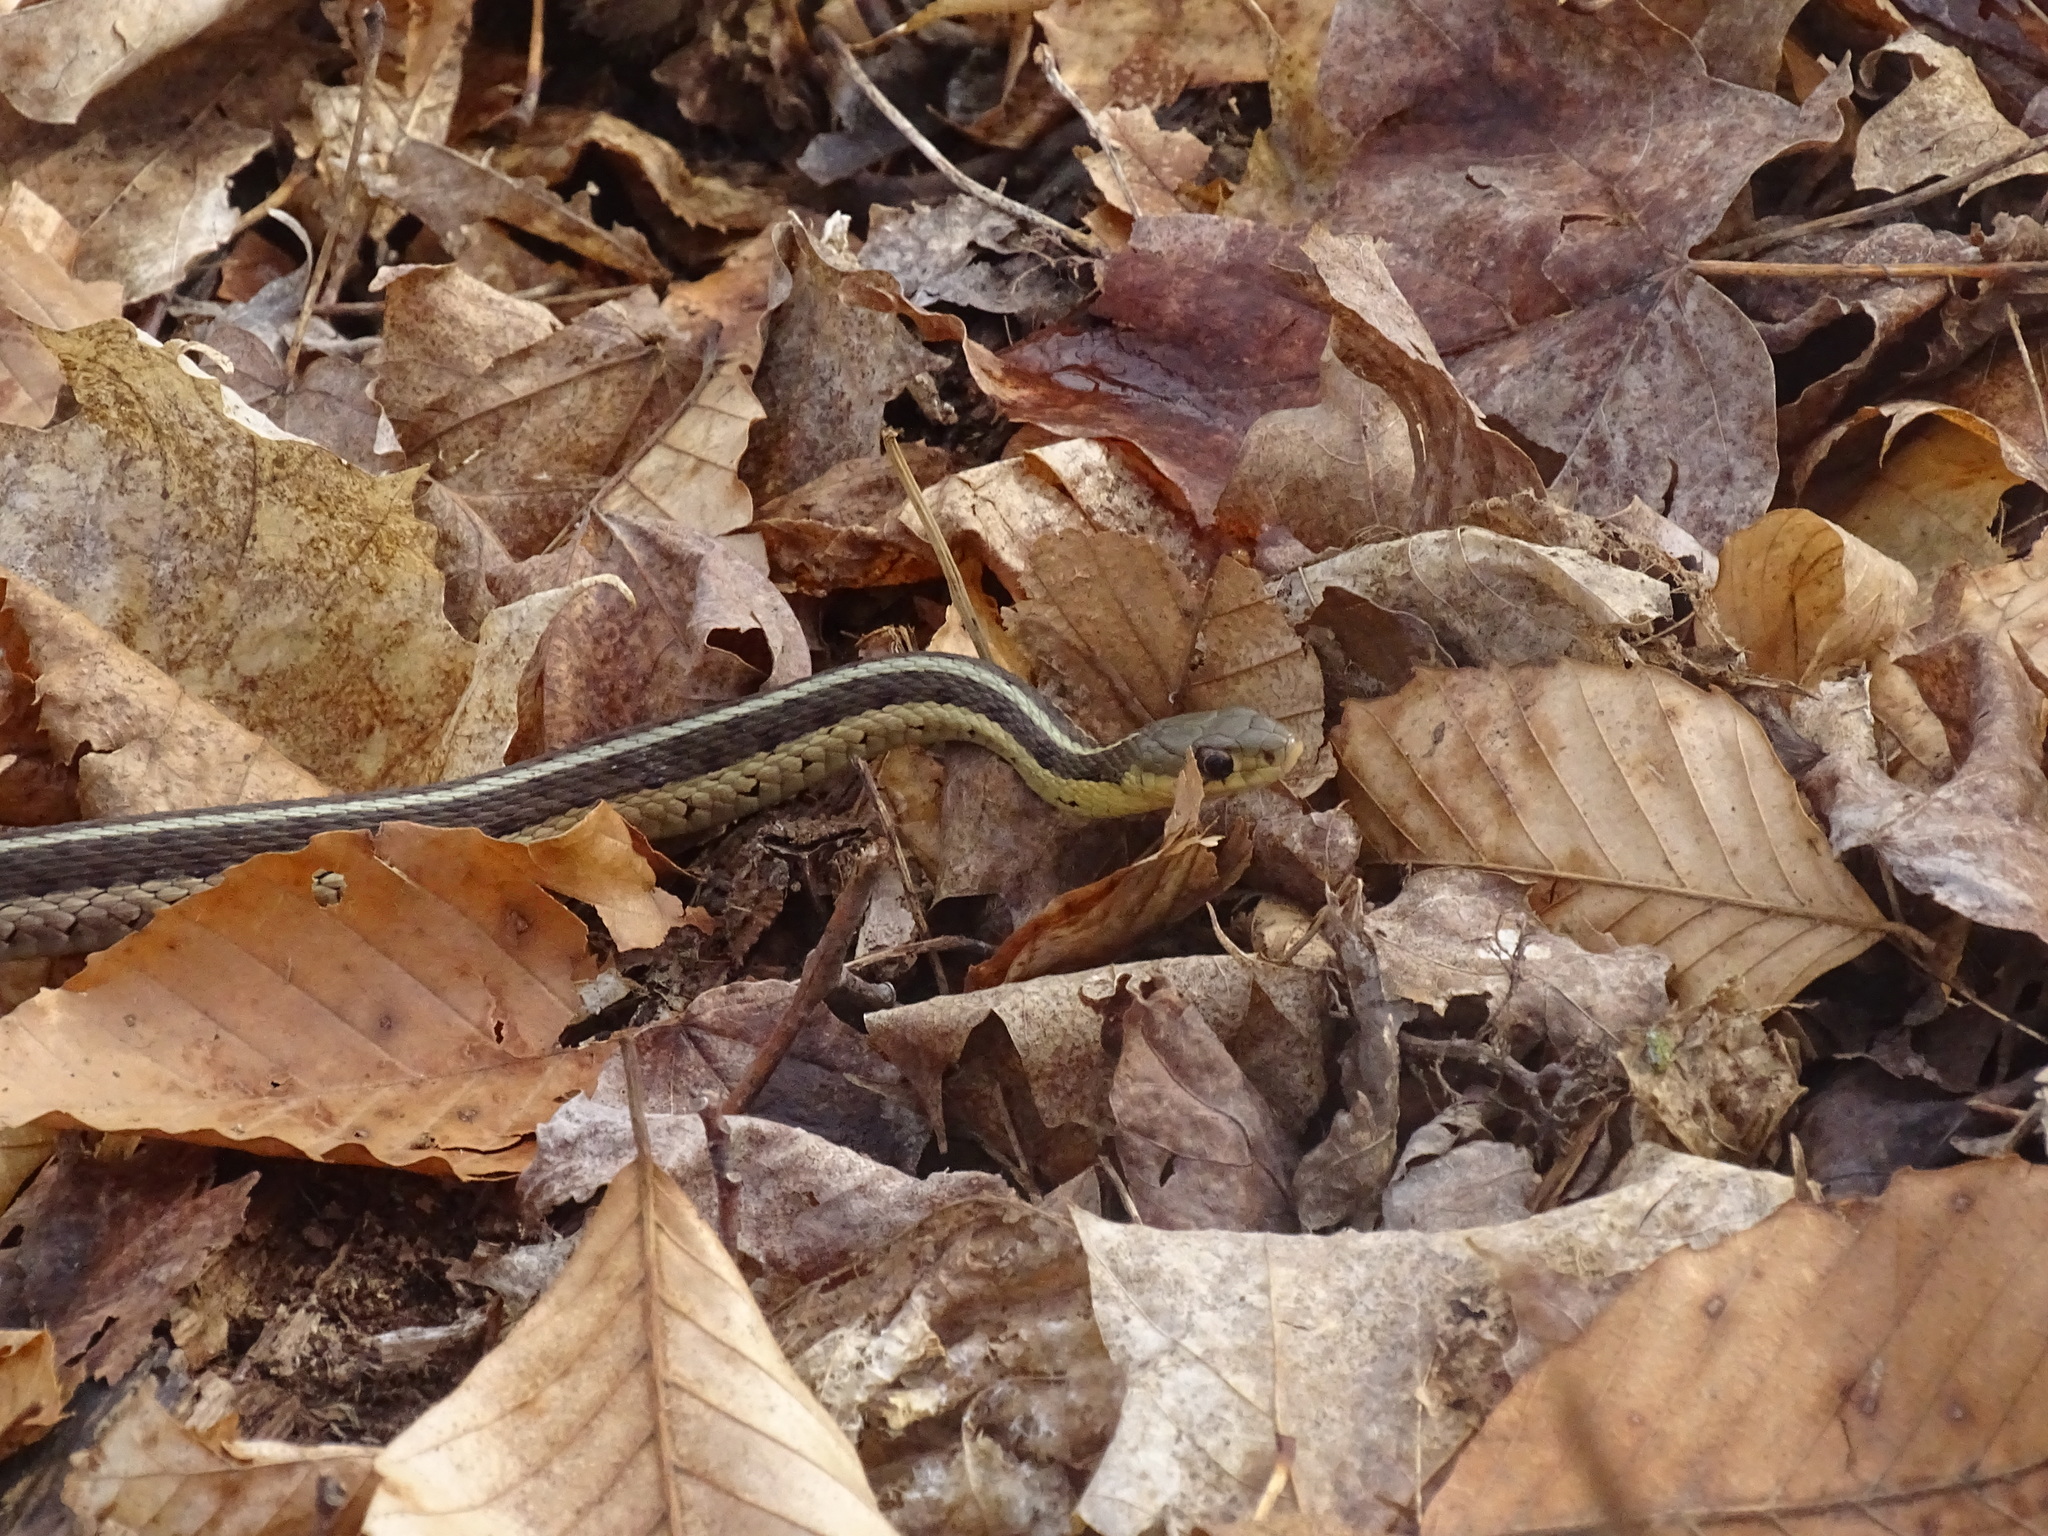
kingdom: Animalia
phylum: Chordata
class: Squamata
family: Colubridae
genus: Thamnophis
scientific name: Thamnophis sirtalis
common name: Common garter snake
